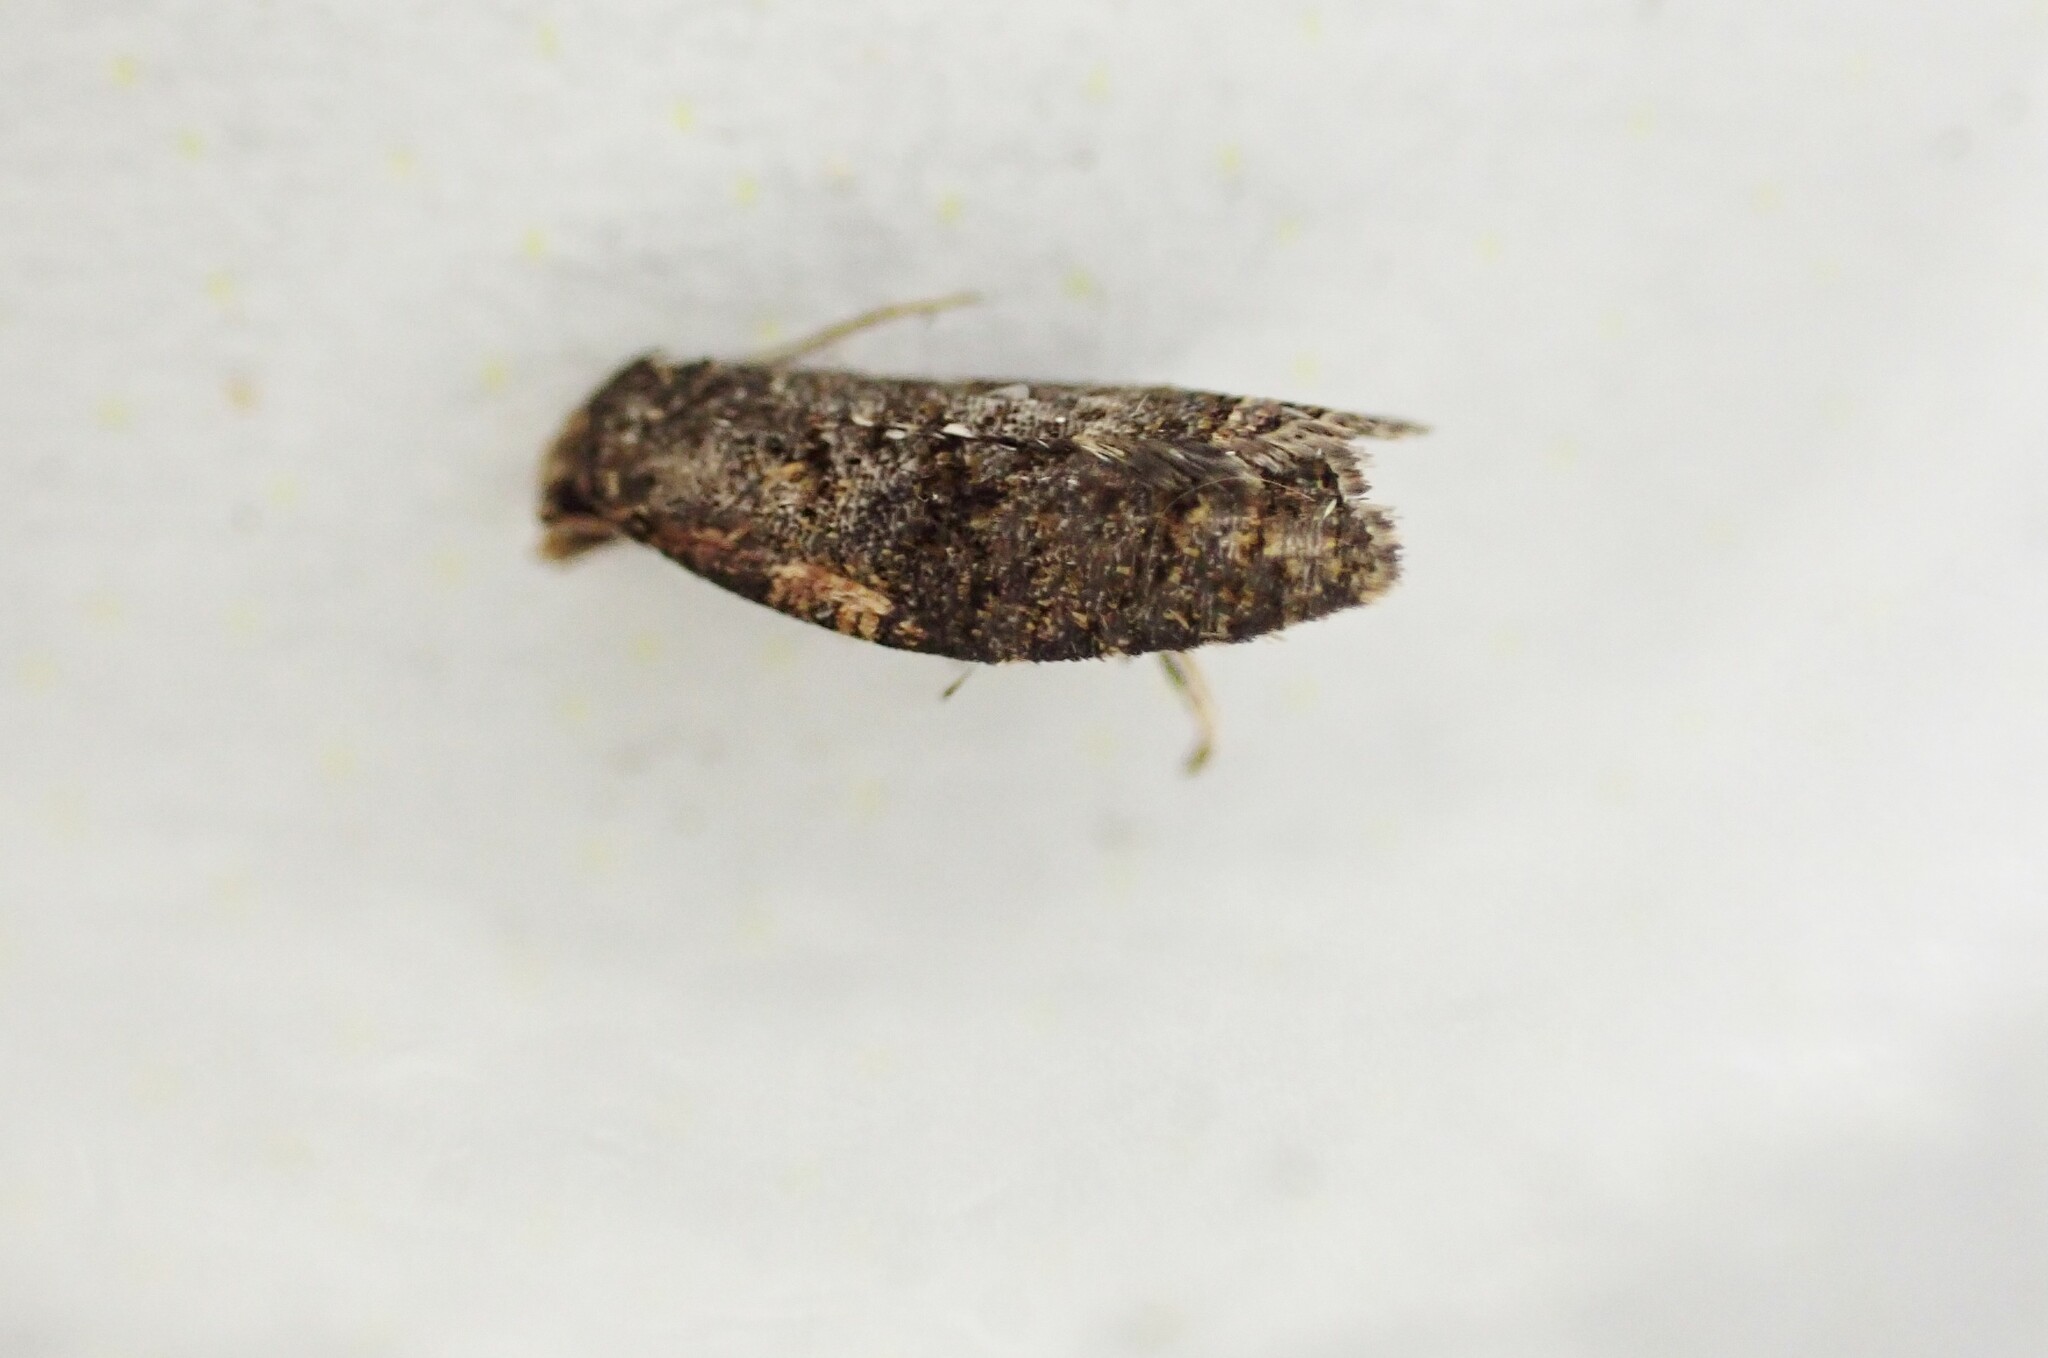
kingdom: Animalia
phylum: Arthropoda
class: Insecta
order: Lepidoptera
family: Tortricidae
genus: Capua
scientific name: Capua intractana
